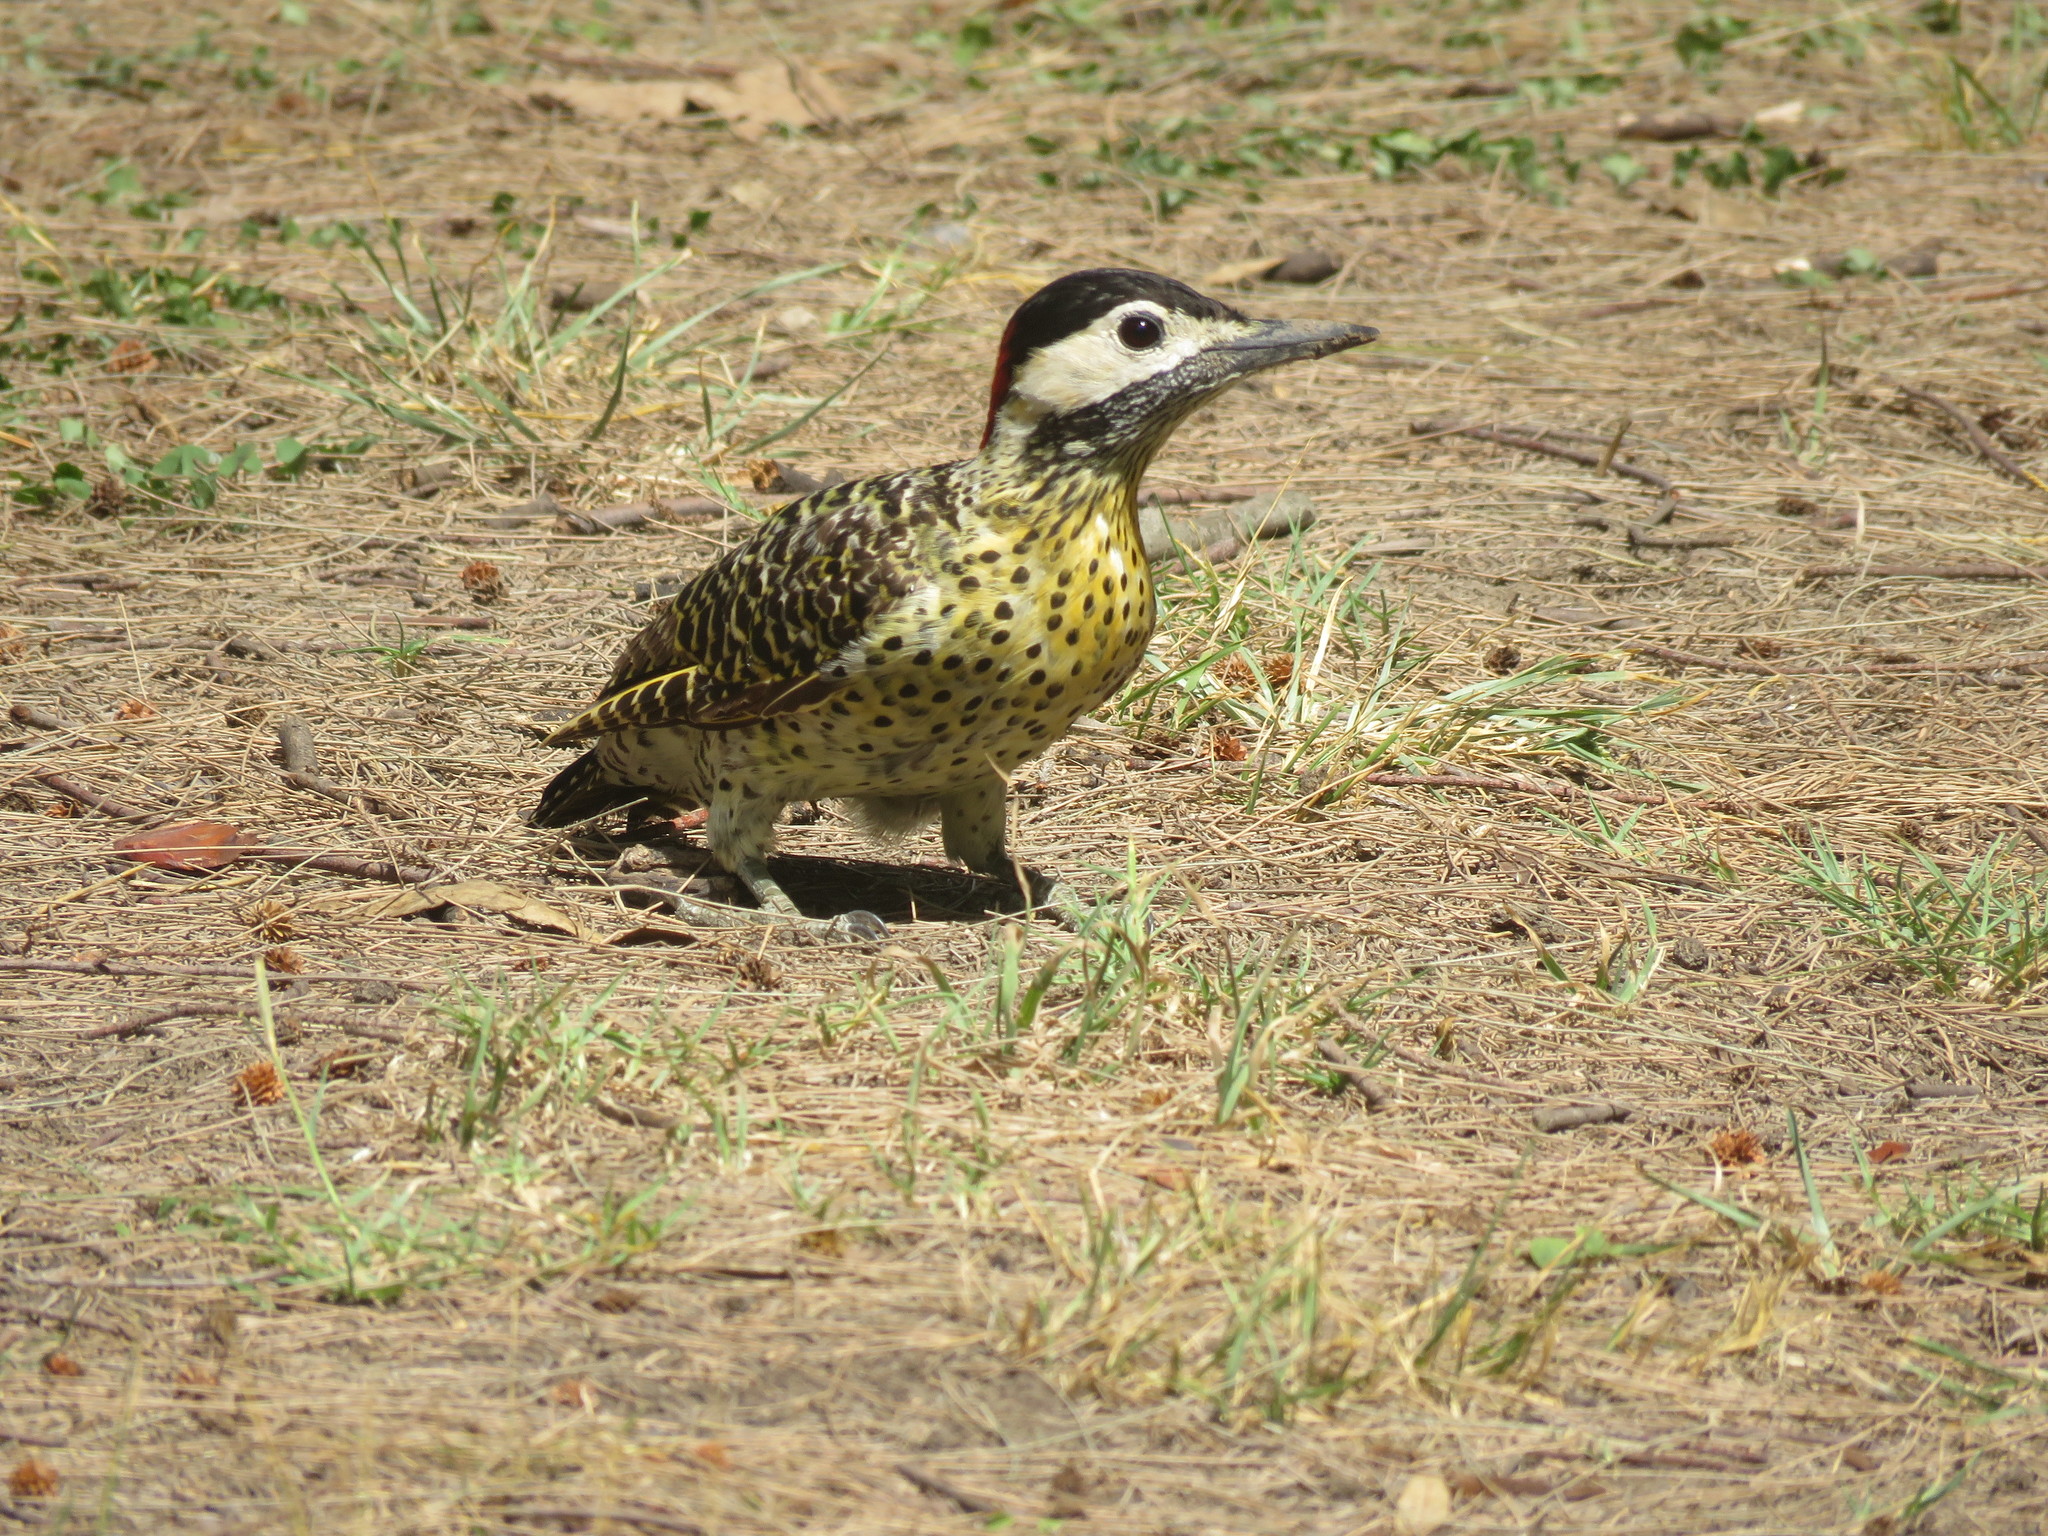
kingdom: Animalia
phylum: Chordata
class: Aves
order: Piciformes
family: Picidae
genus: Colaptes
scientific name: Colaptes melanochloros
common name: Green-barred woodpecker
